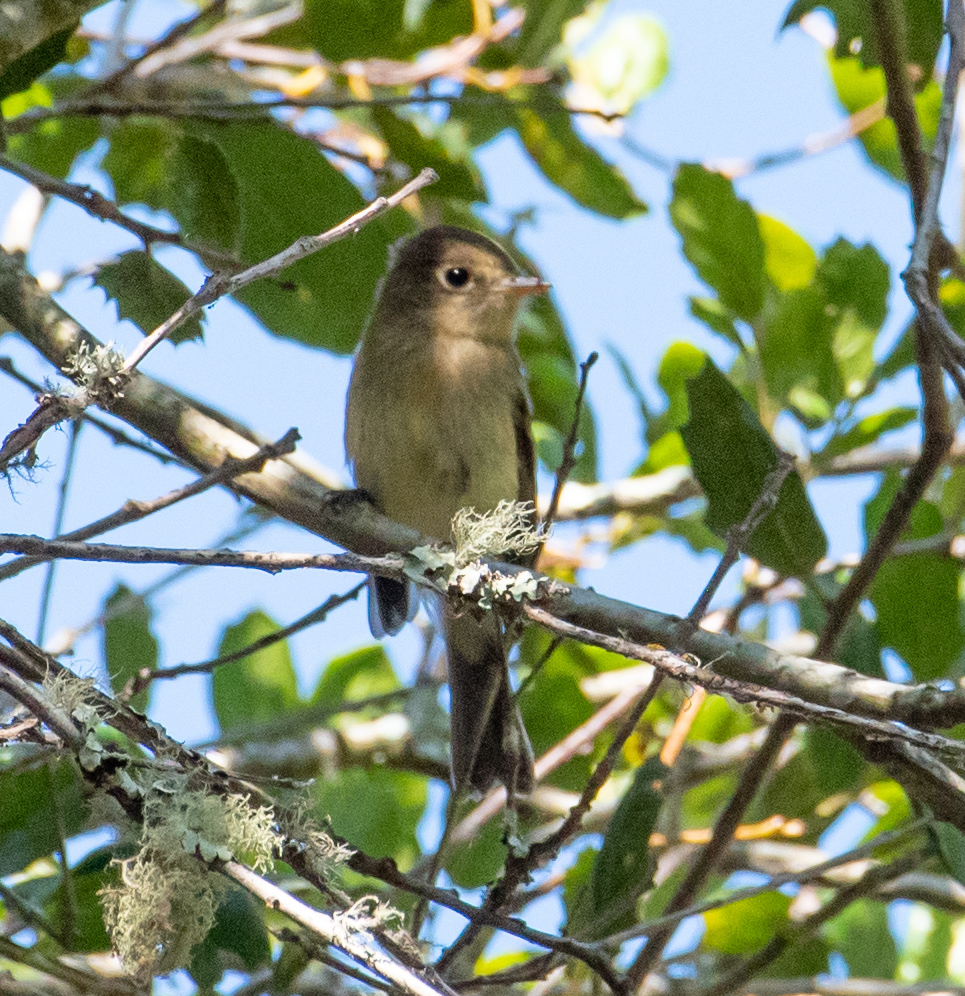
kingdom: Animalia
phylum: Chordata
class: Aves
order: Passeriformes
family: Tyrannidae
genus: Empidonax
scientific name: Empidonax difficilis
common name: Pacific-slope flycatcher
